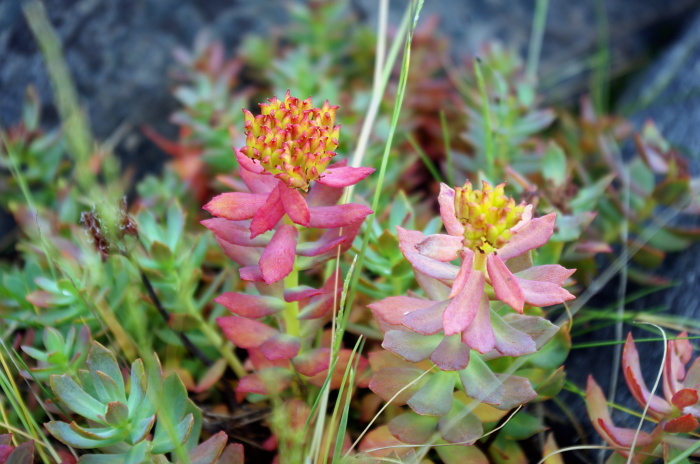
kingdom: Plantae
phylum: Tracheophyta
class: Magnoliopsida
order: Saxifragales
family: Crassulaceae
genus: Rhodiola
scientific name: Rhodiola rosea
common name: Roseroot
